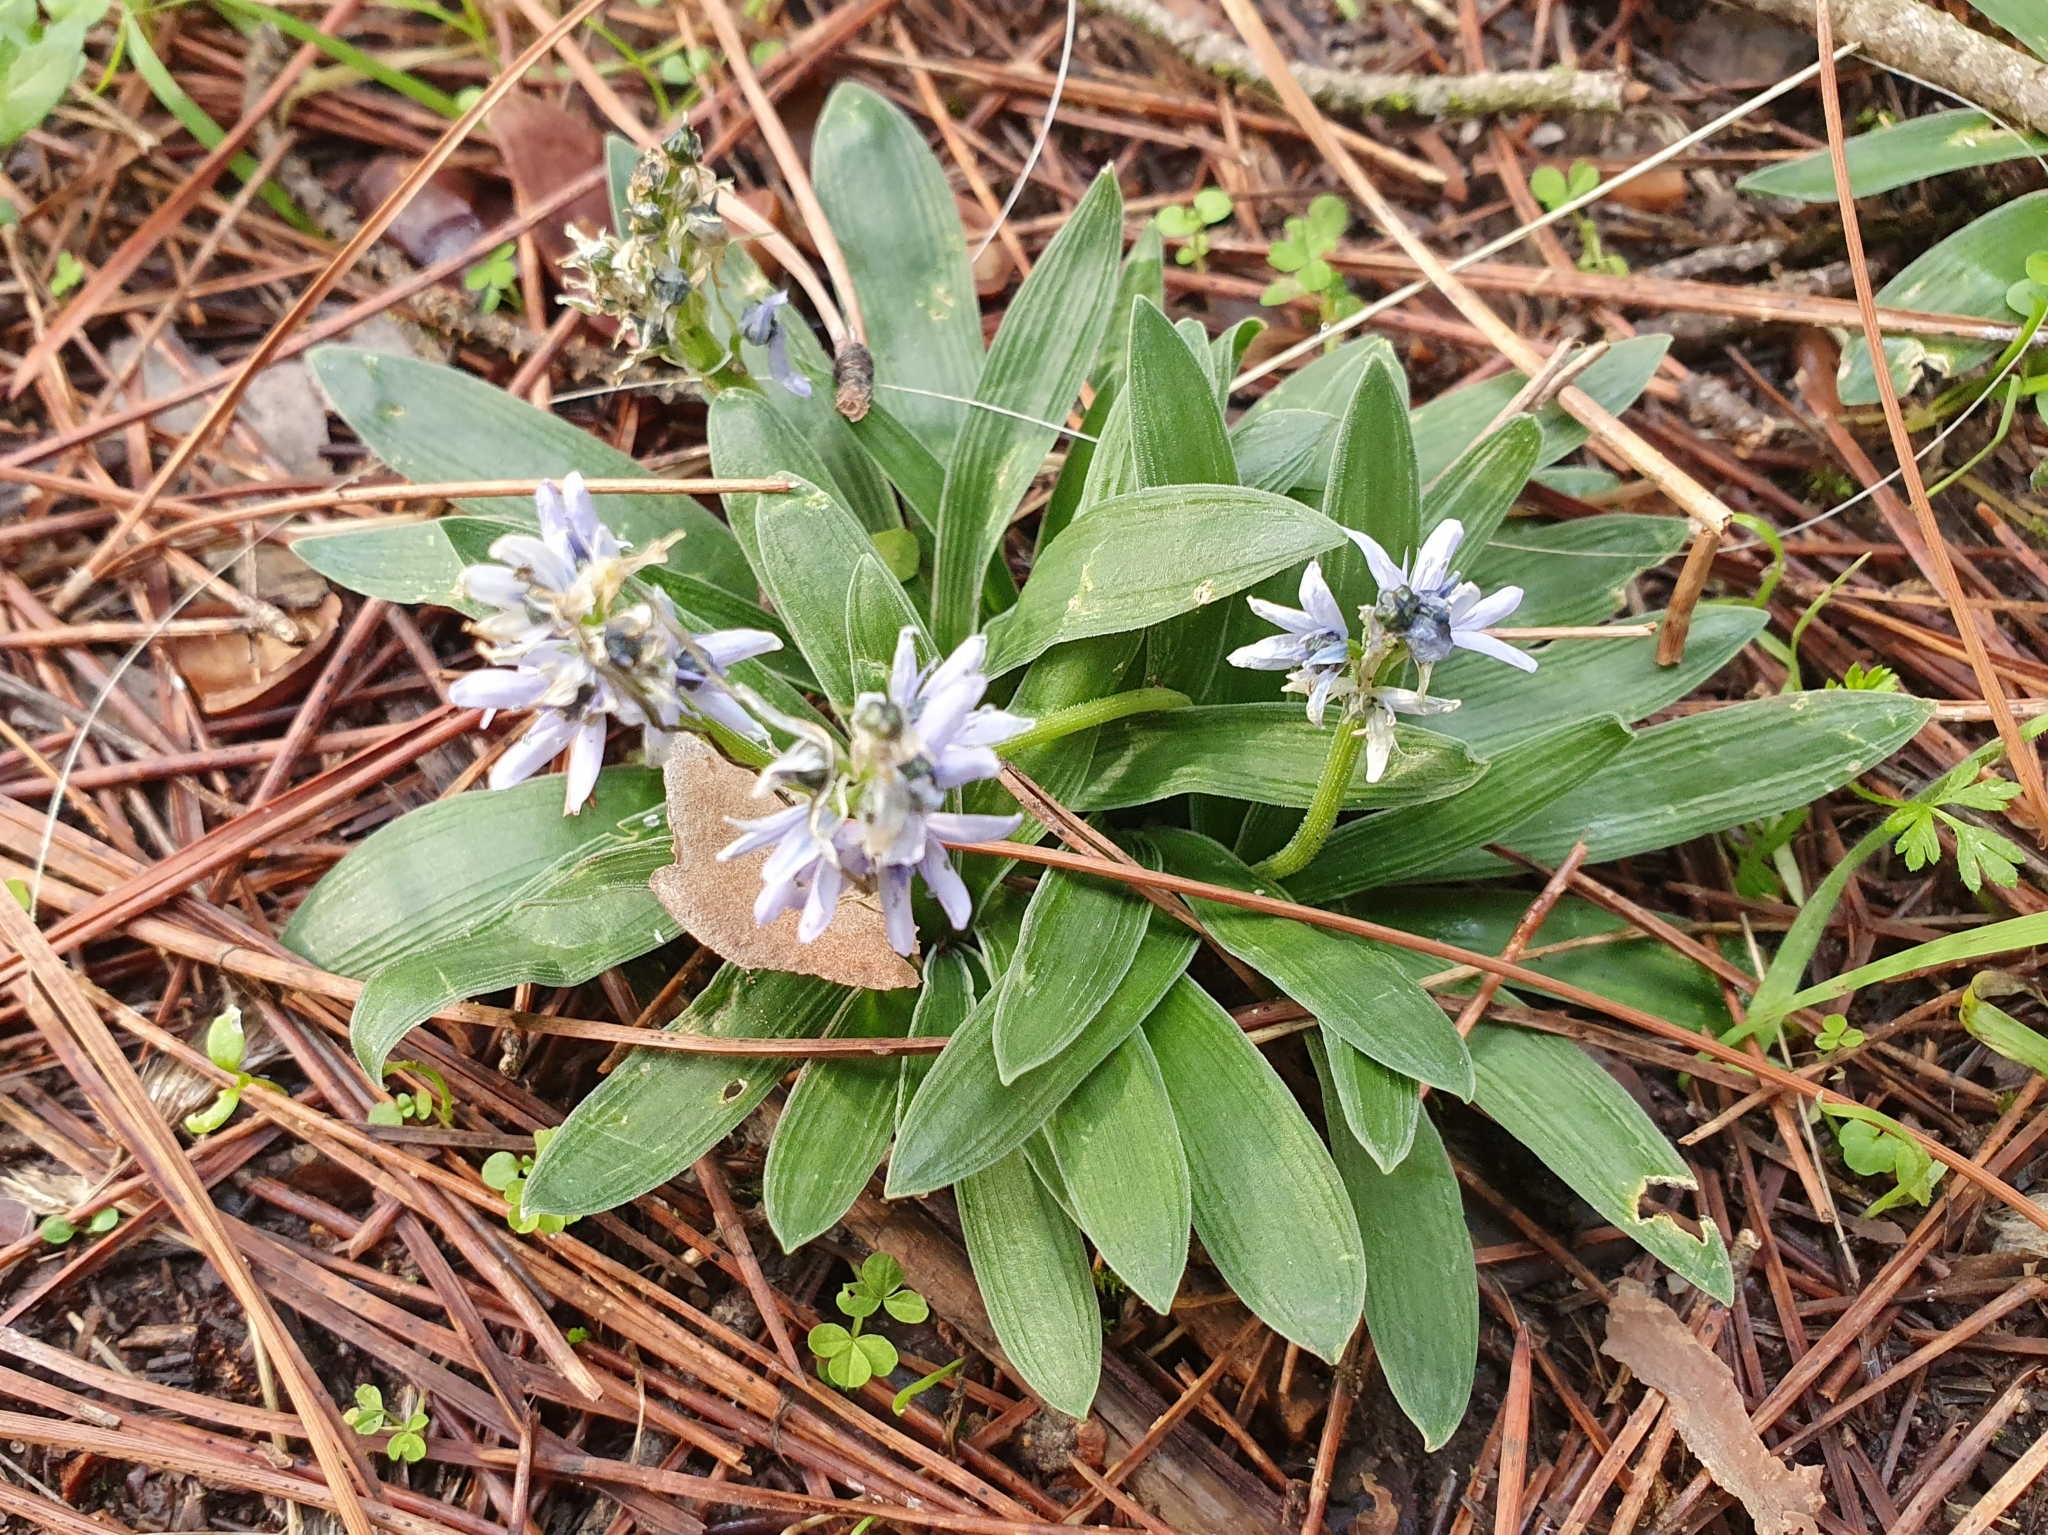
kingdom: Plantae
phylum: Tracheophyta
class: Liliopsida
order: Asparagales
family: Asparagaceae
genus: Hyacinthoides
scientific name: Hyacinthoides lingulata
